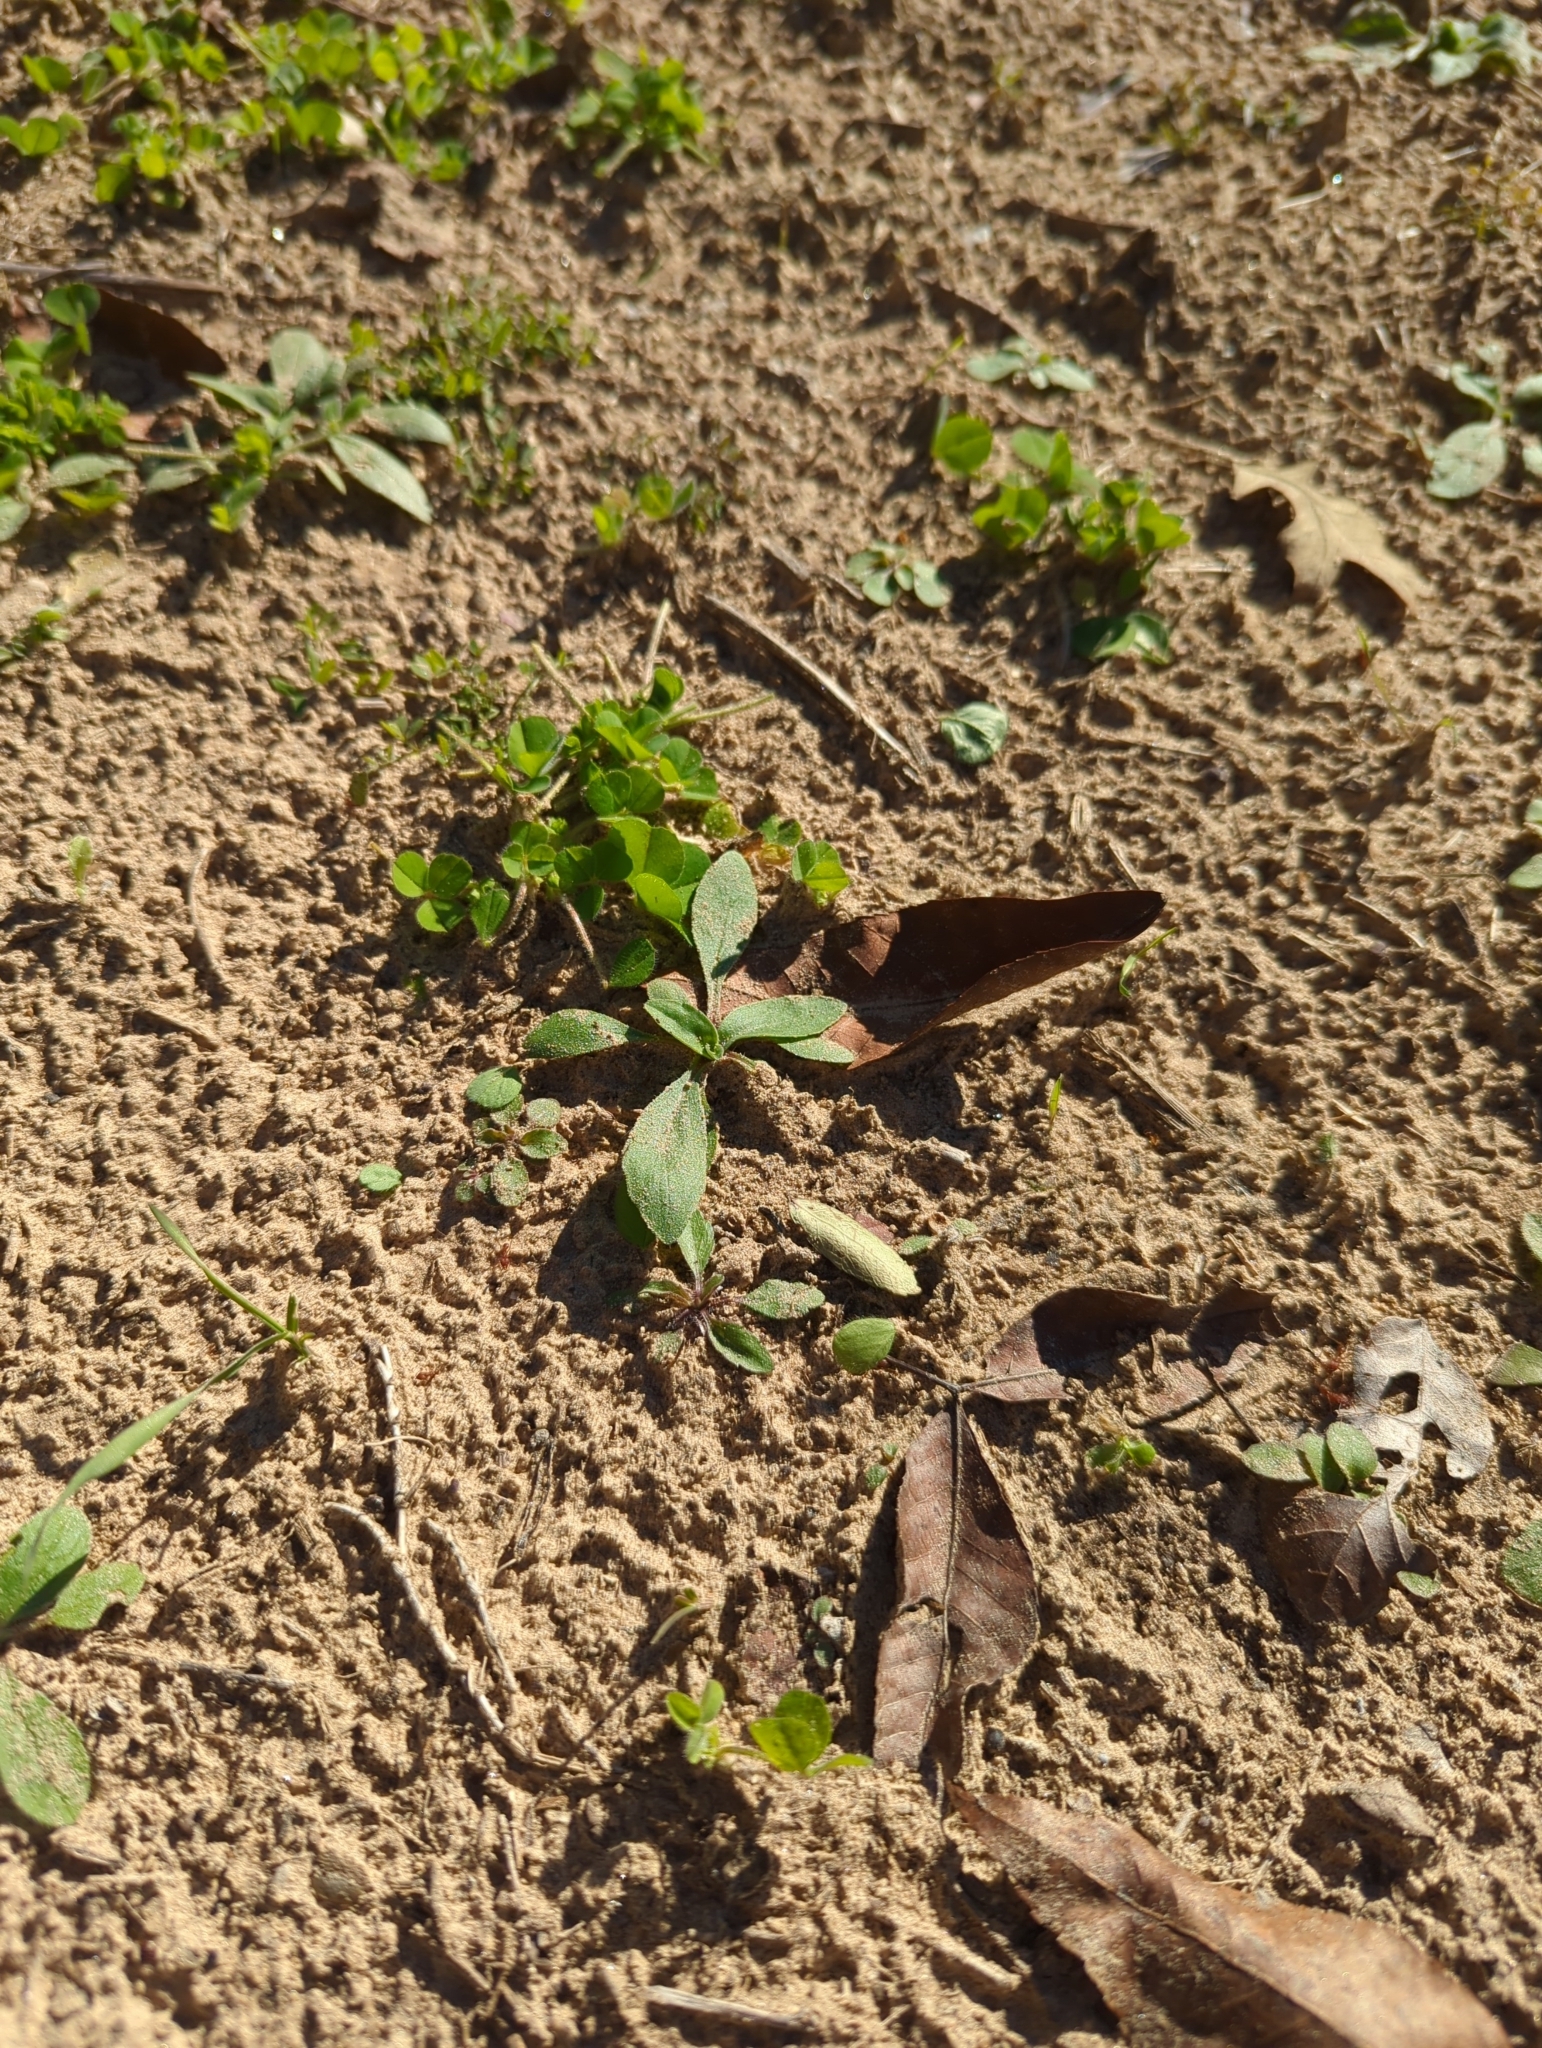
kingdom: Animalia
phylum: Arthropoda
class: Insecta
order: Hymenoptera
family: Formicidae
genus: Atta
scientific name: Atta texana
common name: Texas leafcutting ant
